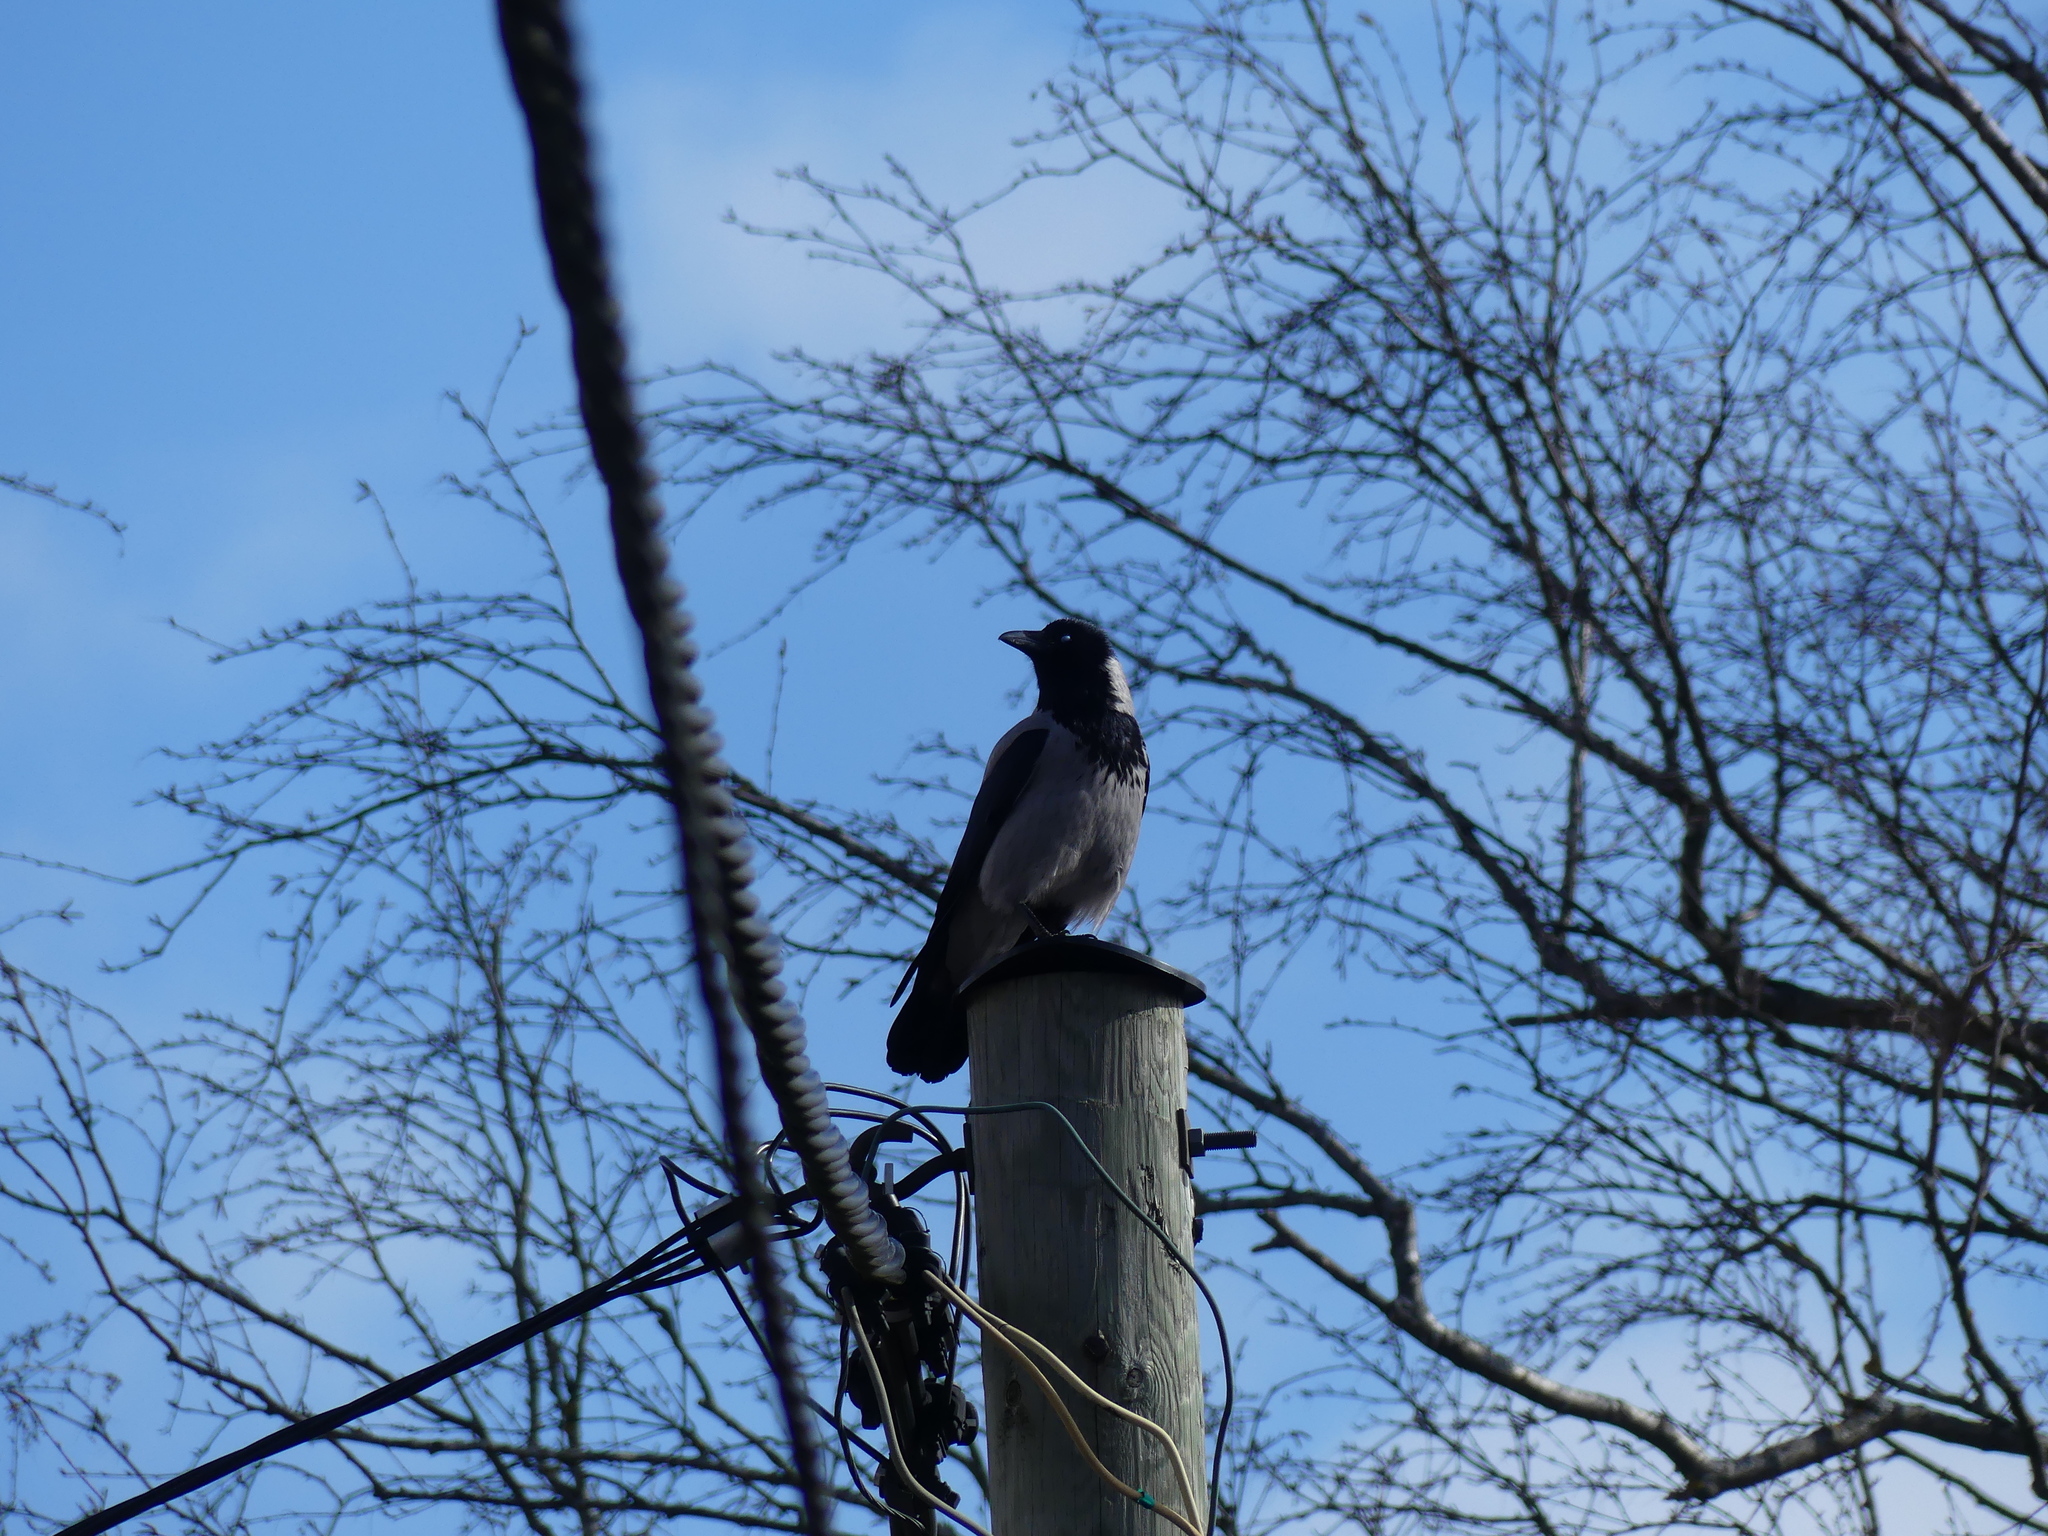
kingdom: Animalia
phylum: Chordata
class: Aves
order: Passeriformes
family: Corvidae
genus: Corvus
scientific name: Corvus cornix
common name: Hooded crow
